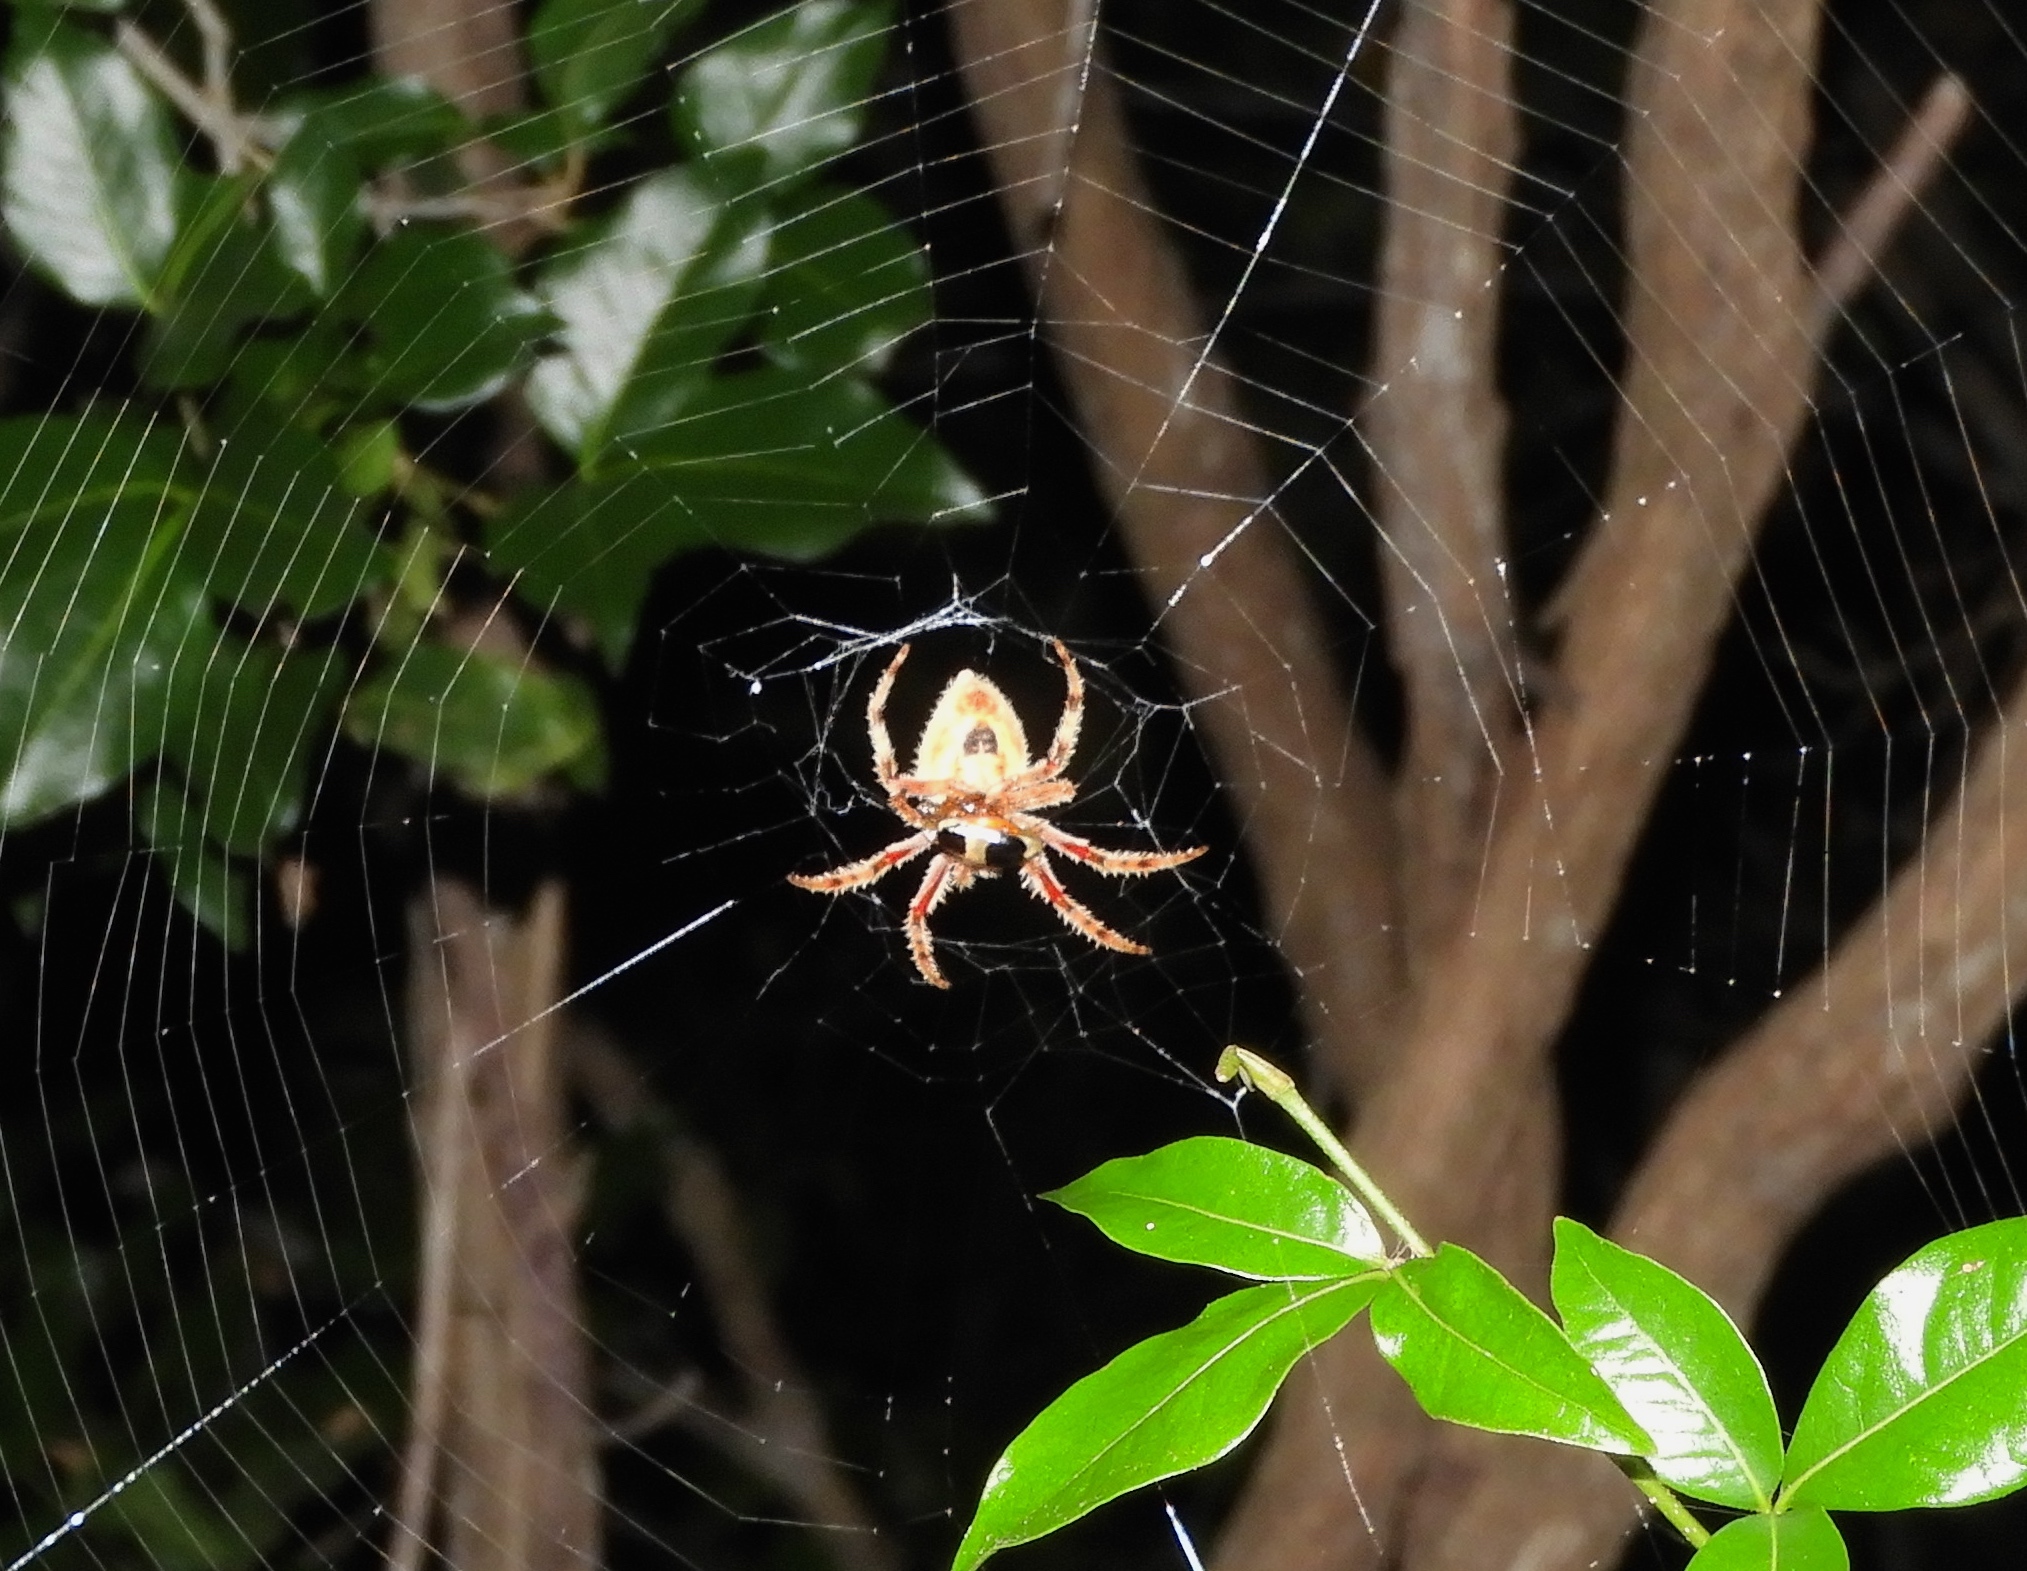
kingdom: Animalia
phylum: Arthropoda
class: Arachnida
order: Araneae
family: Araneidae
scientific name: Araneidae
